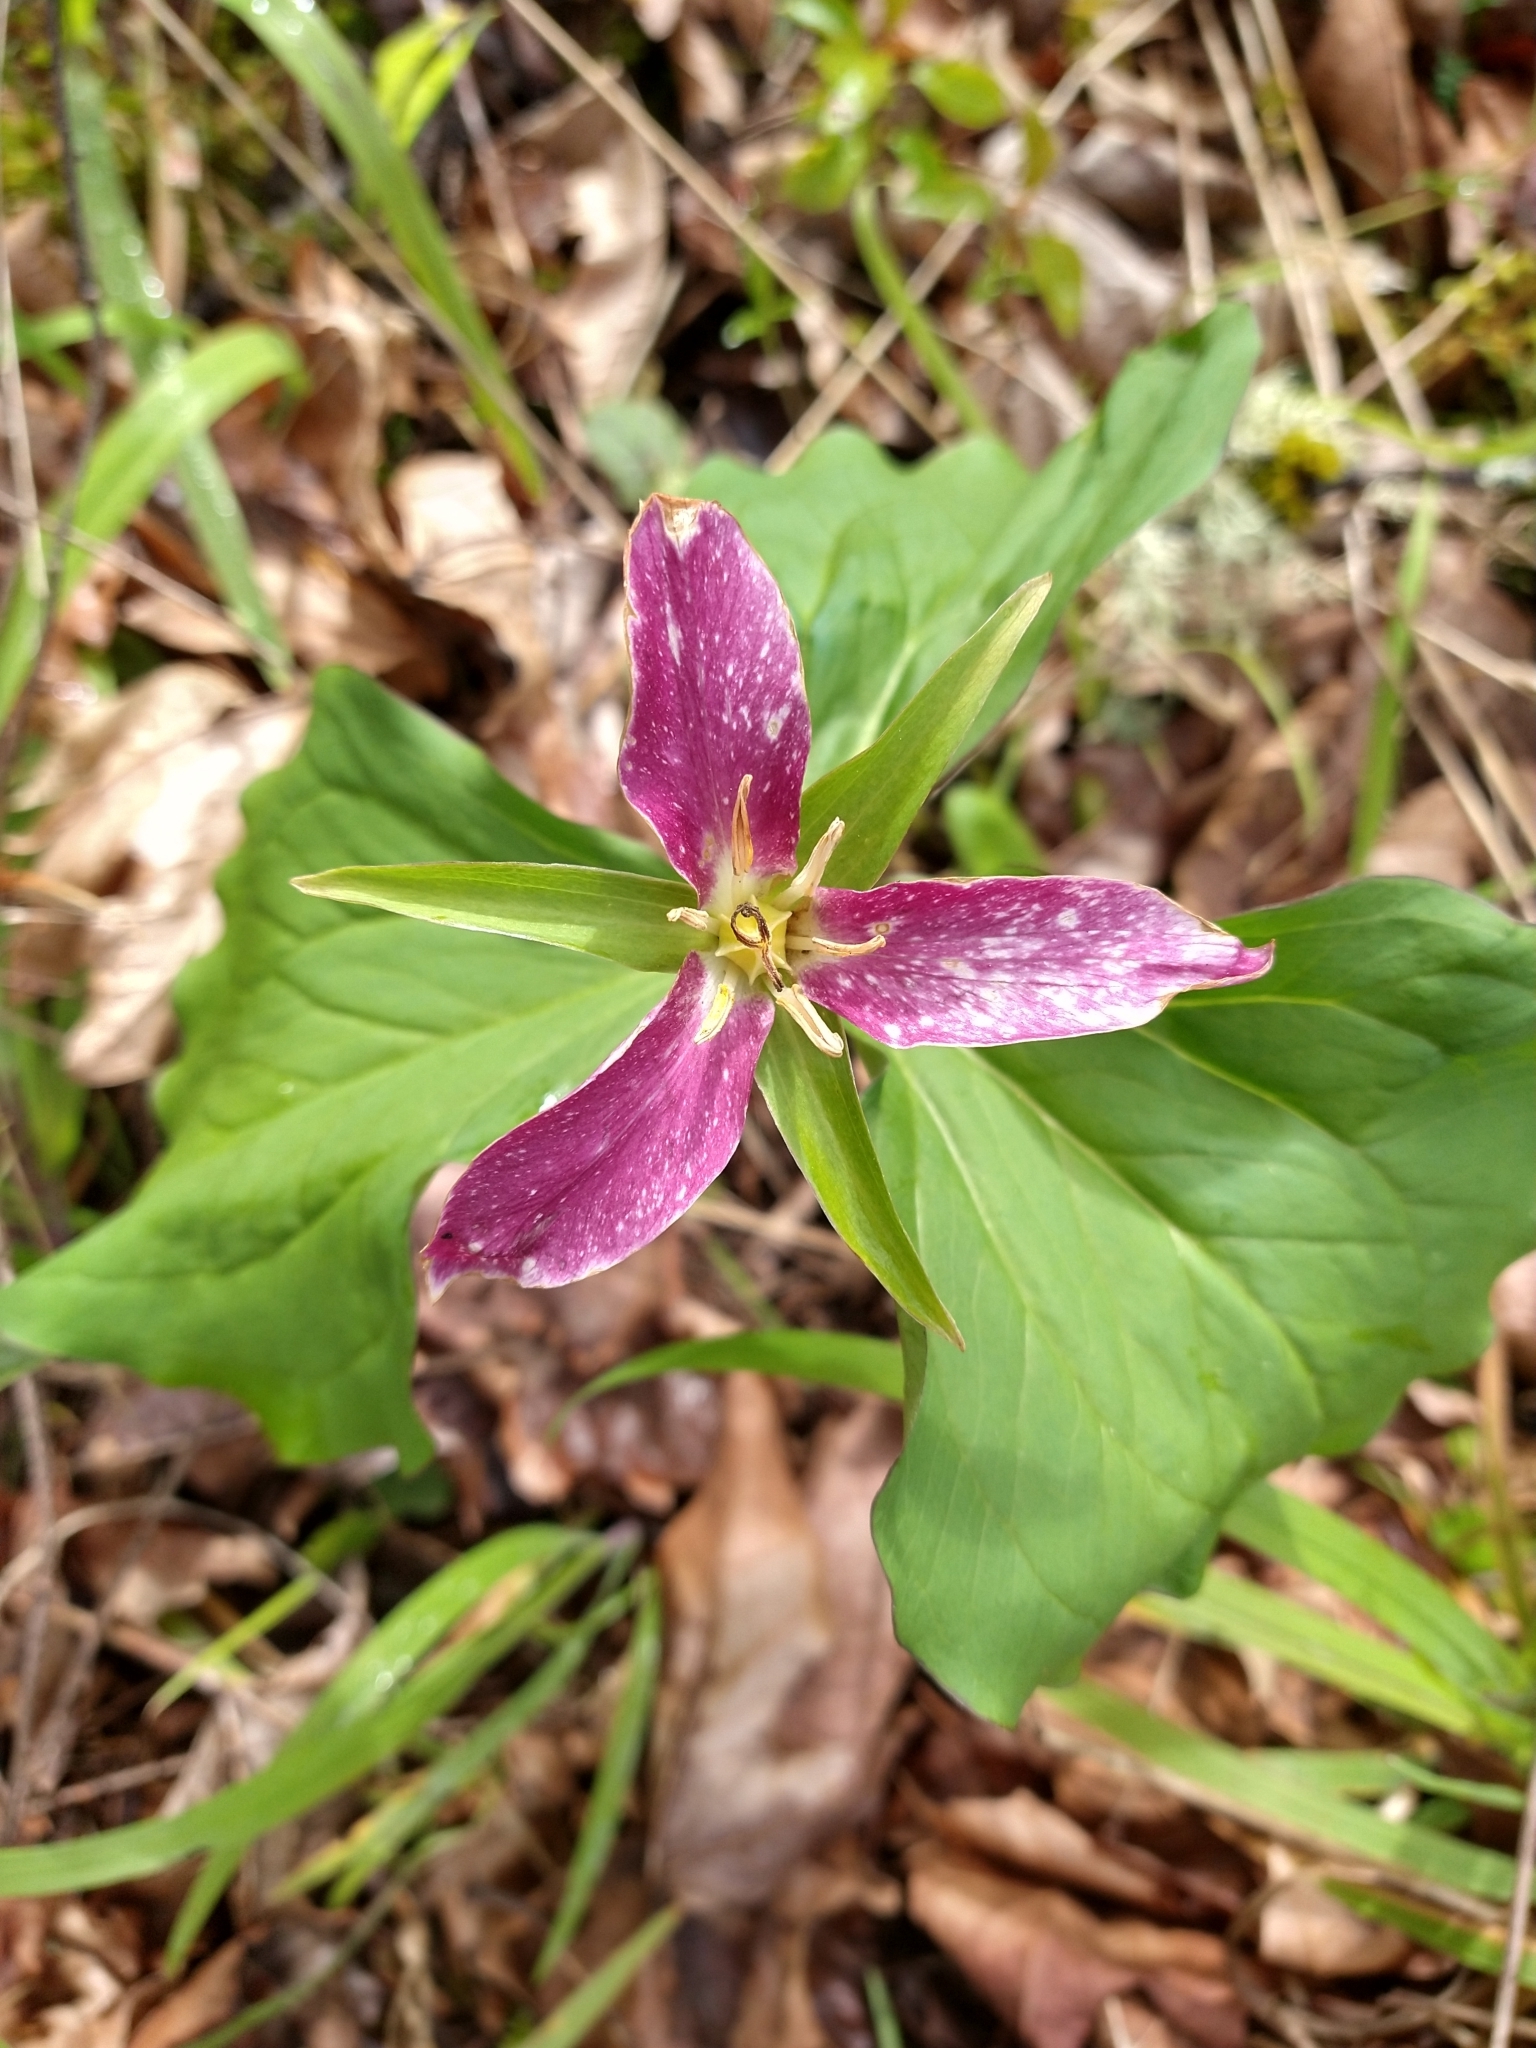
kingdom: Plantae
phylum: Tracheophyta
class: Liliopsida
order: Liliales
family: Melanthiaceae
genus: Trillium
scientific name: Trillium ovatum
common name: Pacific trillium
